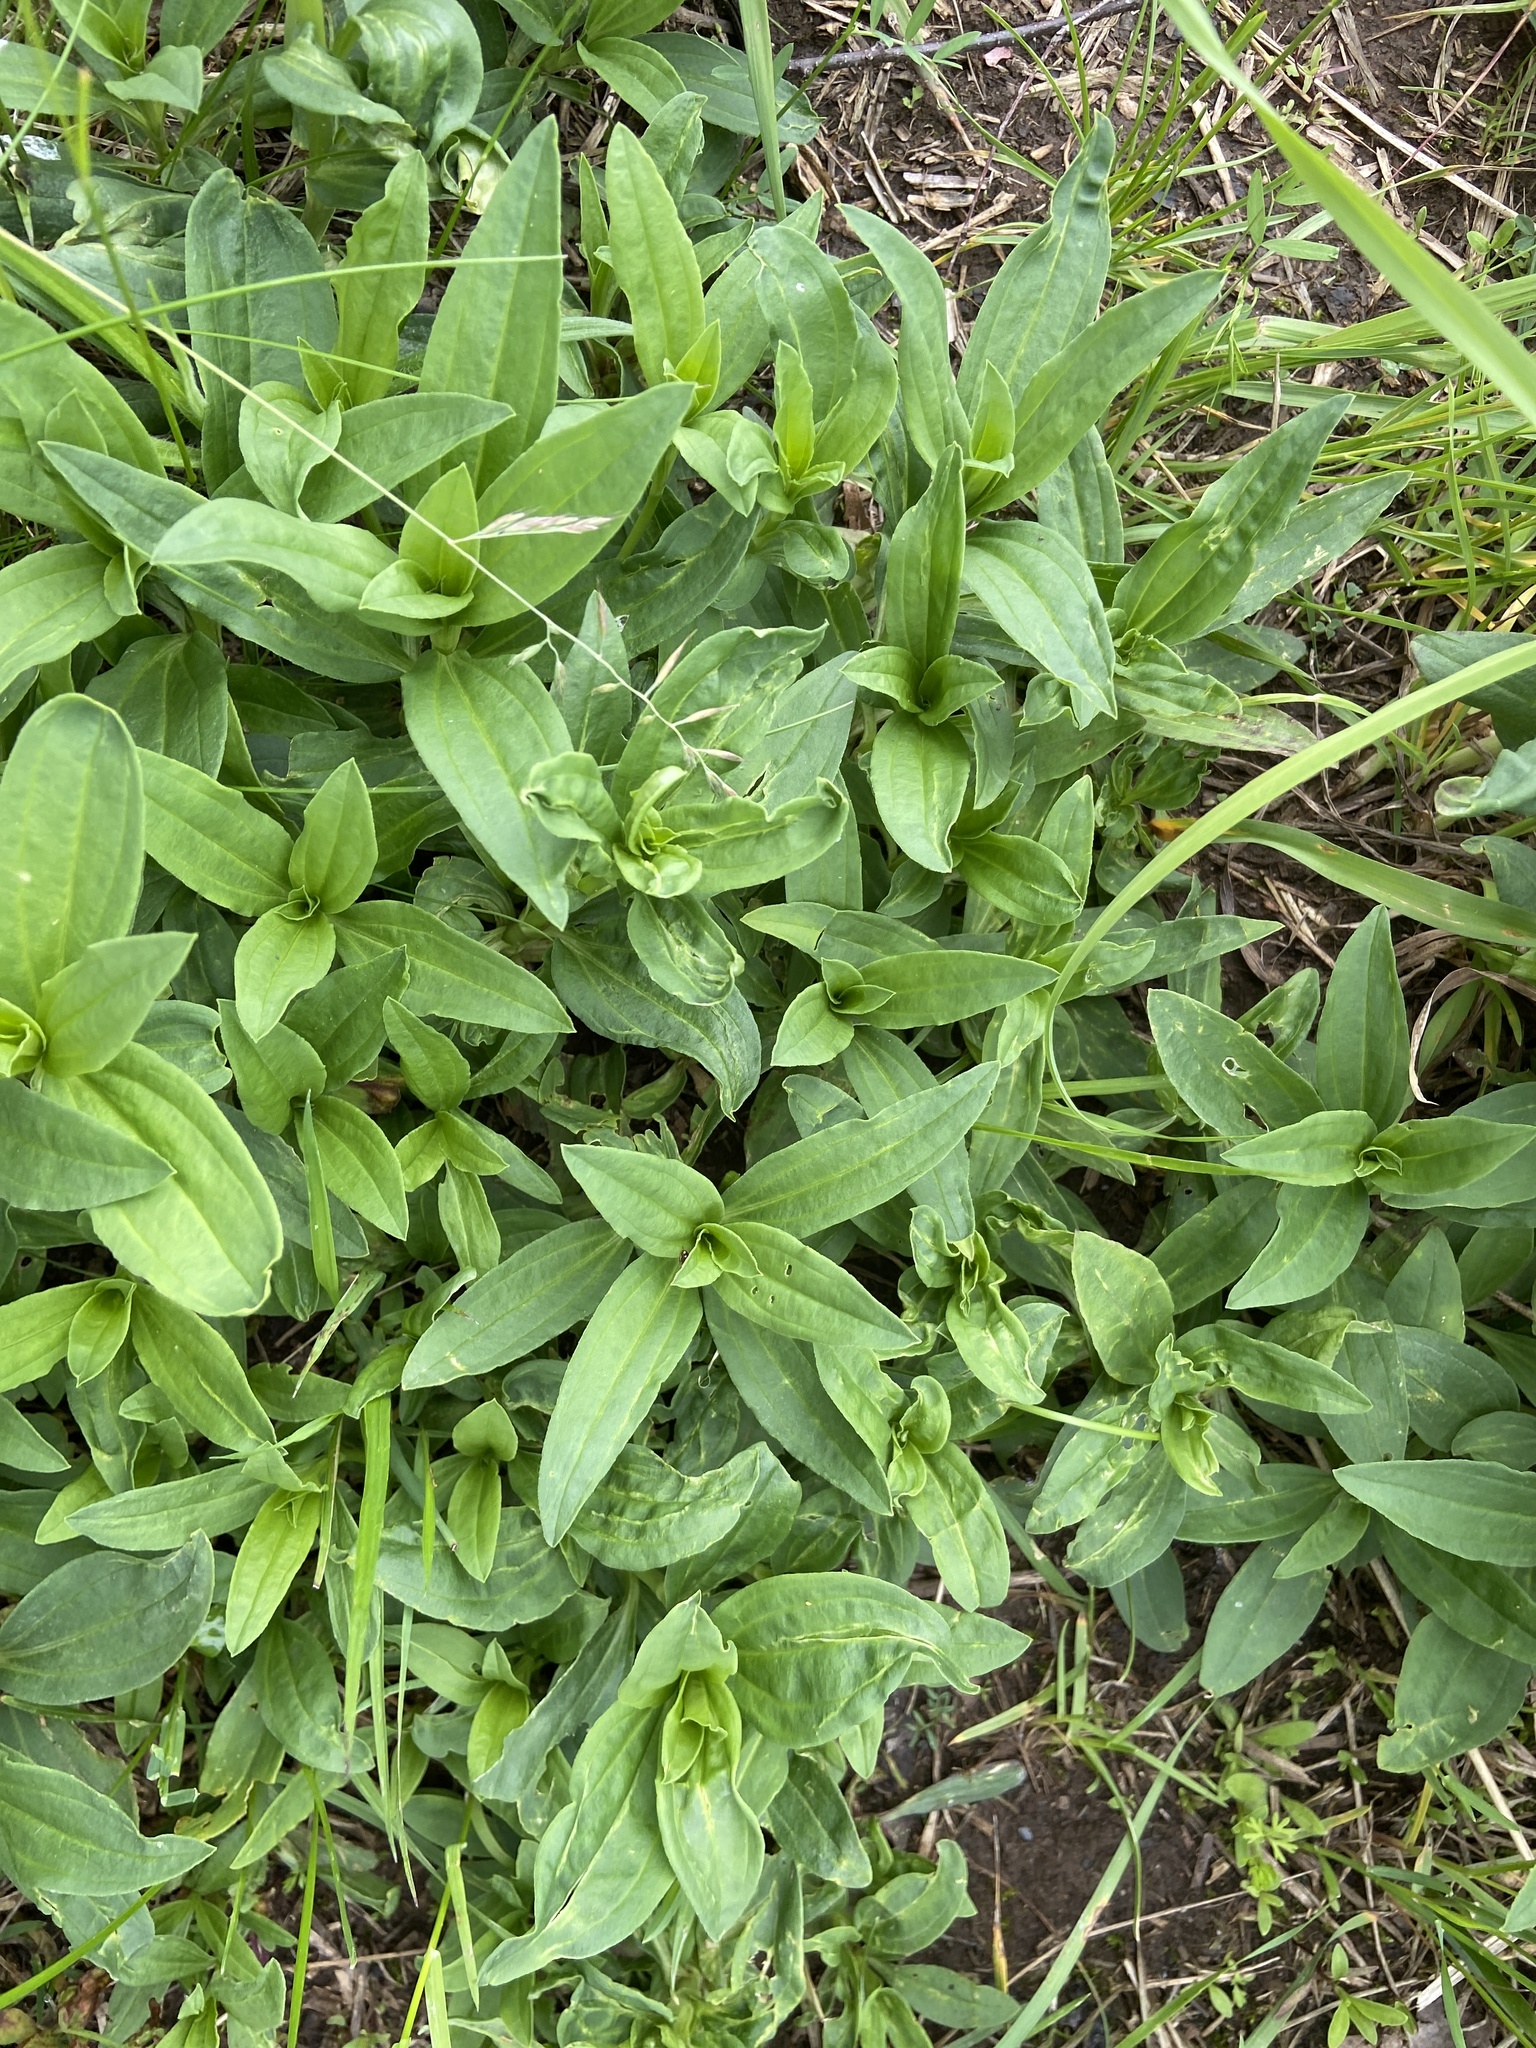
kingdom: Plantae
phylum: Tracheophyta
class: Magnoliopsida
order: Caryophyllales
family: Caryophyllaceae
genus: Saponaria
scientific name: Saponaria officinalis
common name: Soapwort
